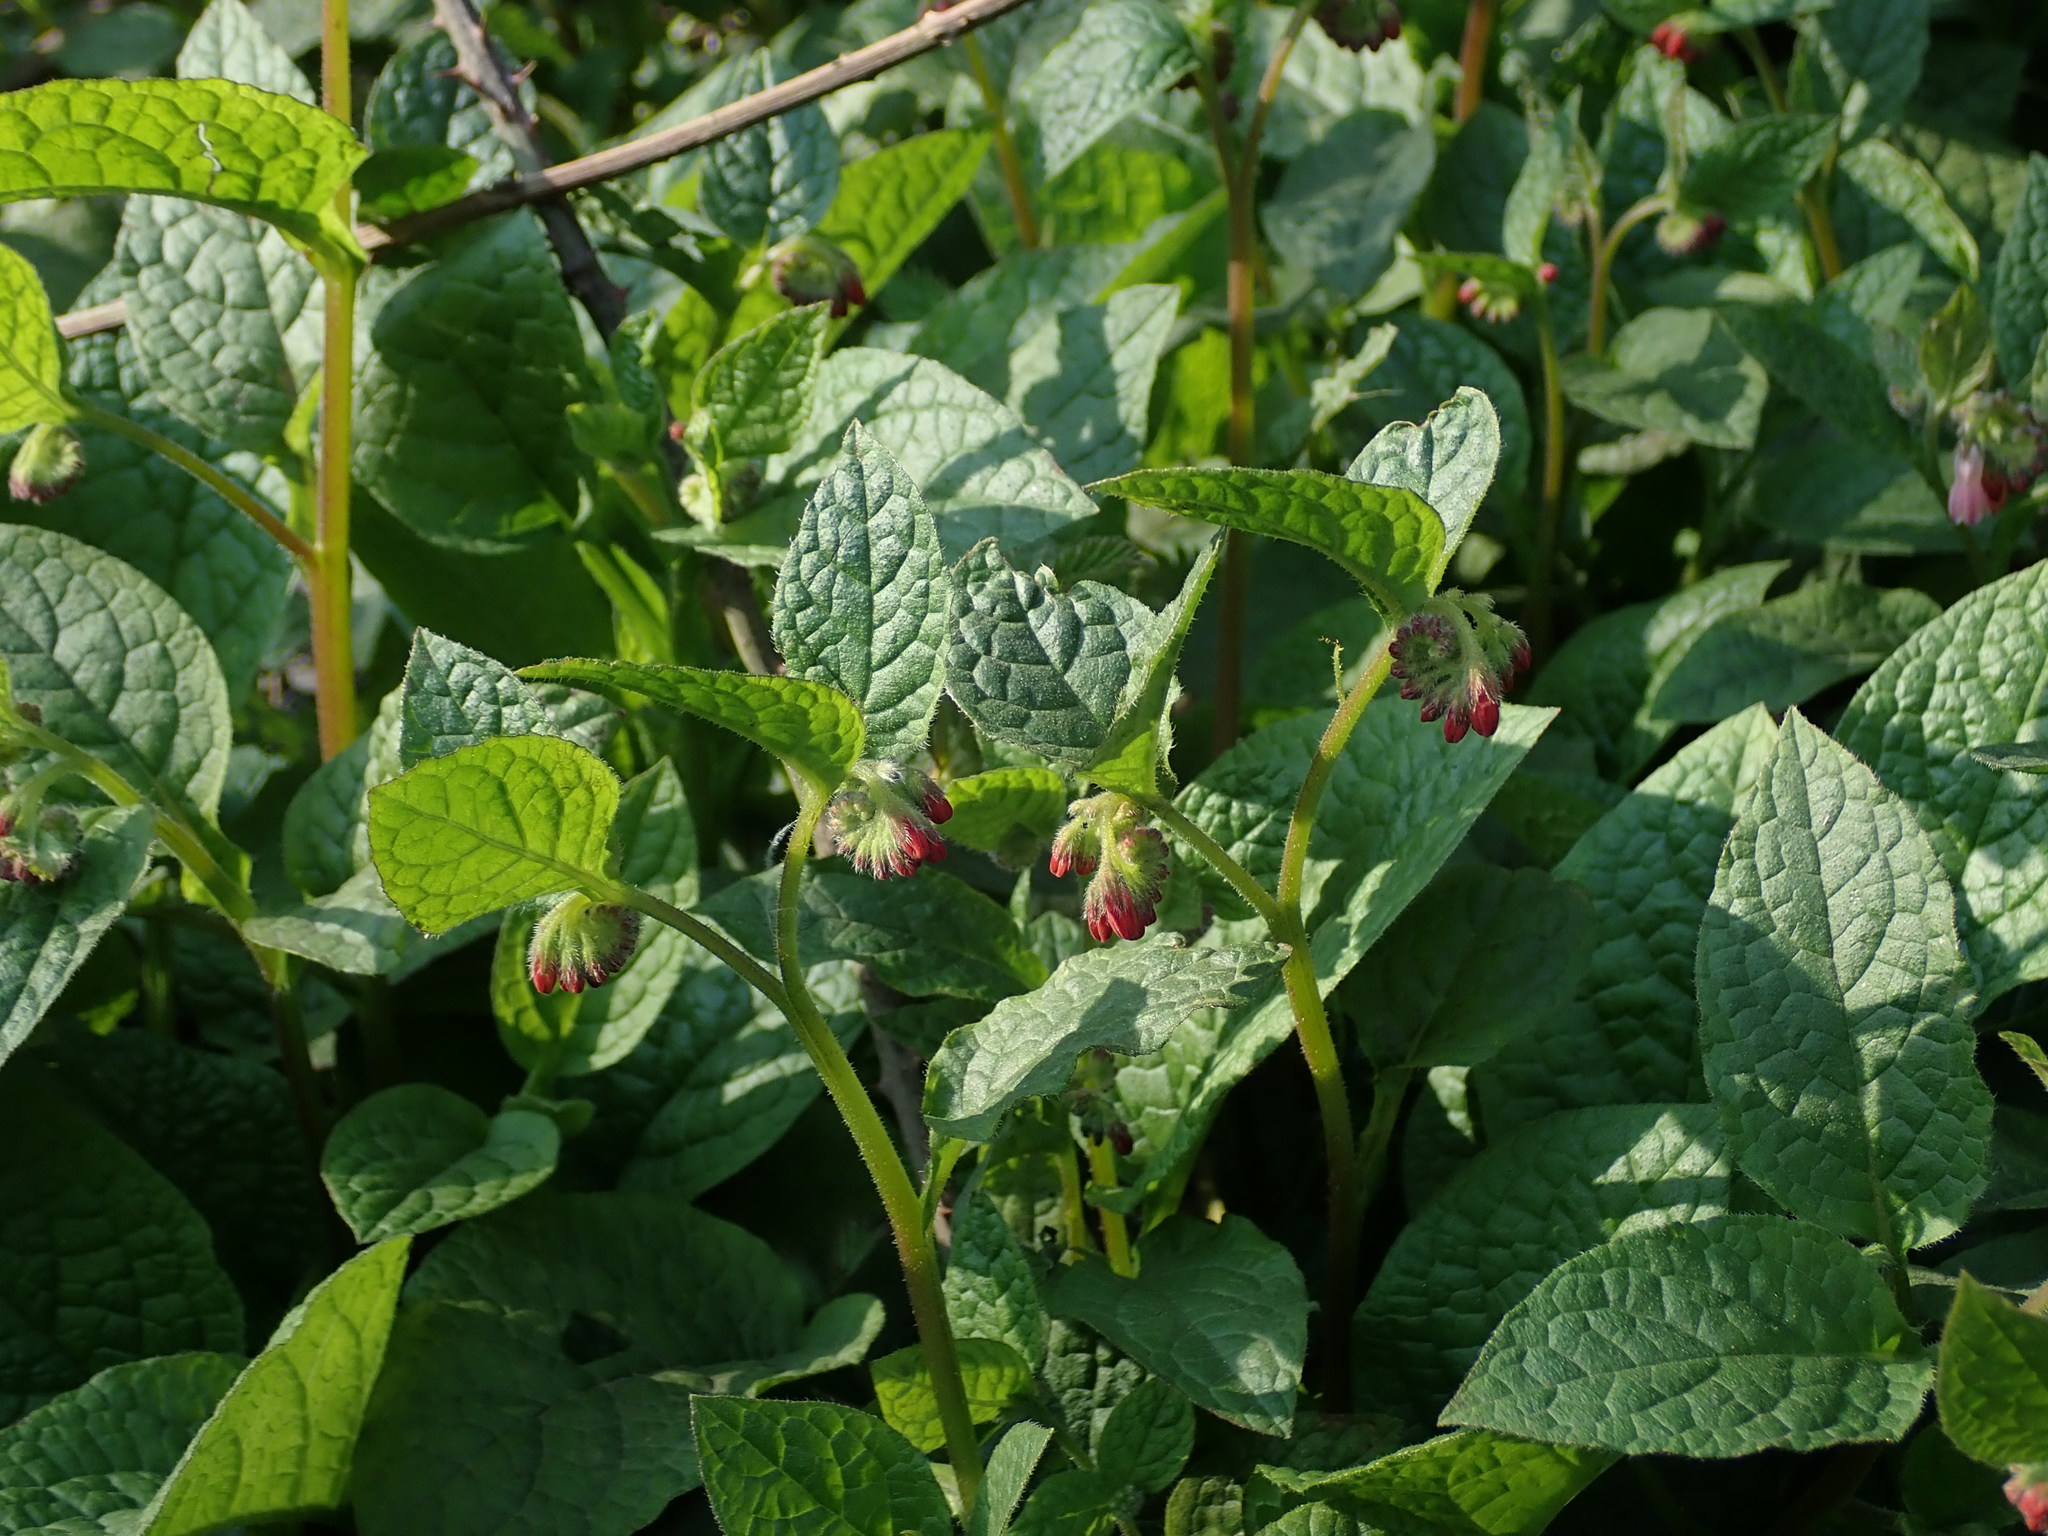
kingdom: Plantae
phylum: Tracheophyta
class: Magnoliopsida
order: Boraginales
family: Boraginaceae
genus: Symphytum
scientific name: Symphytum hidcotense
